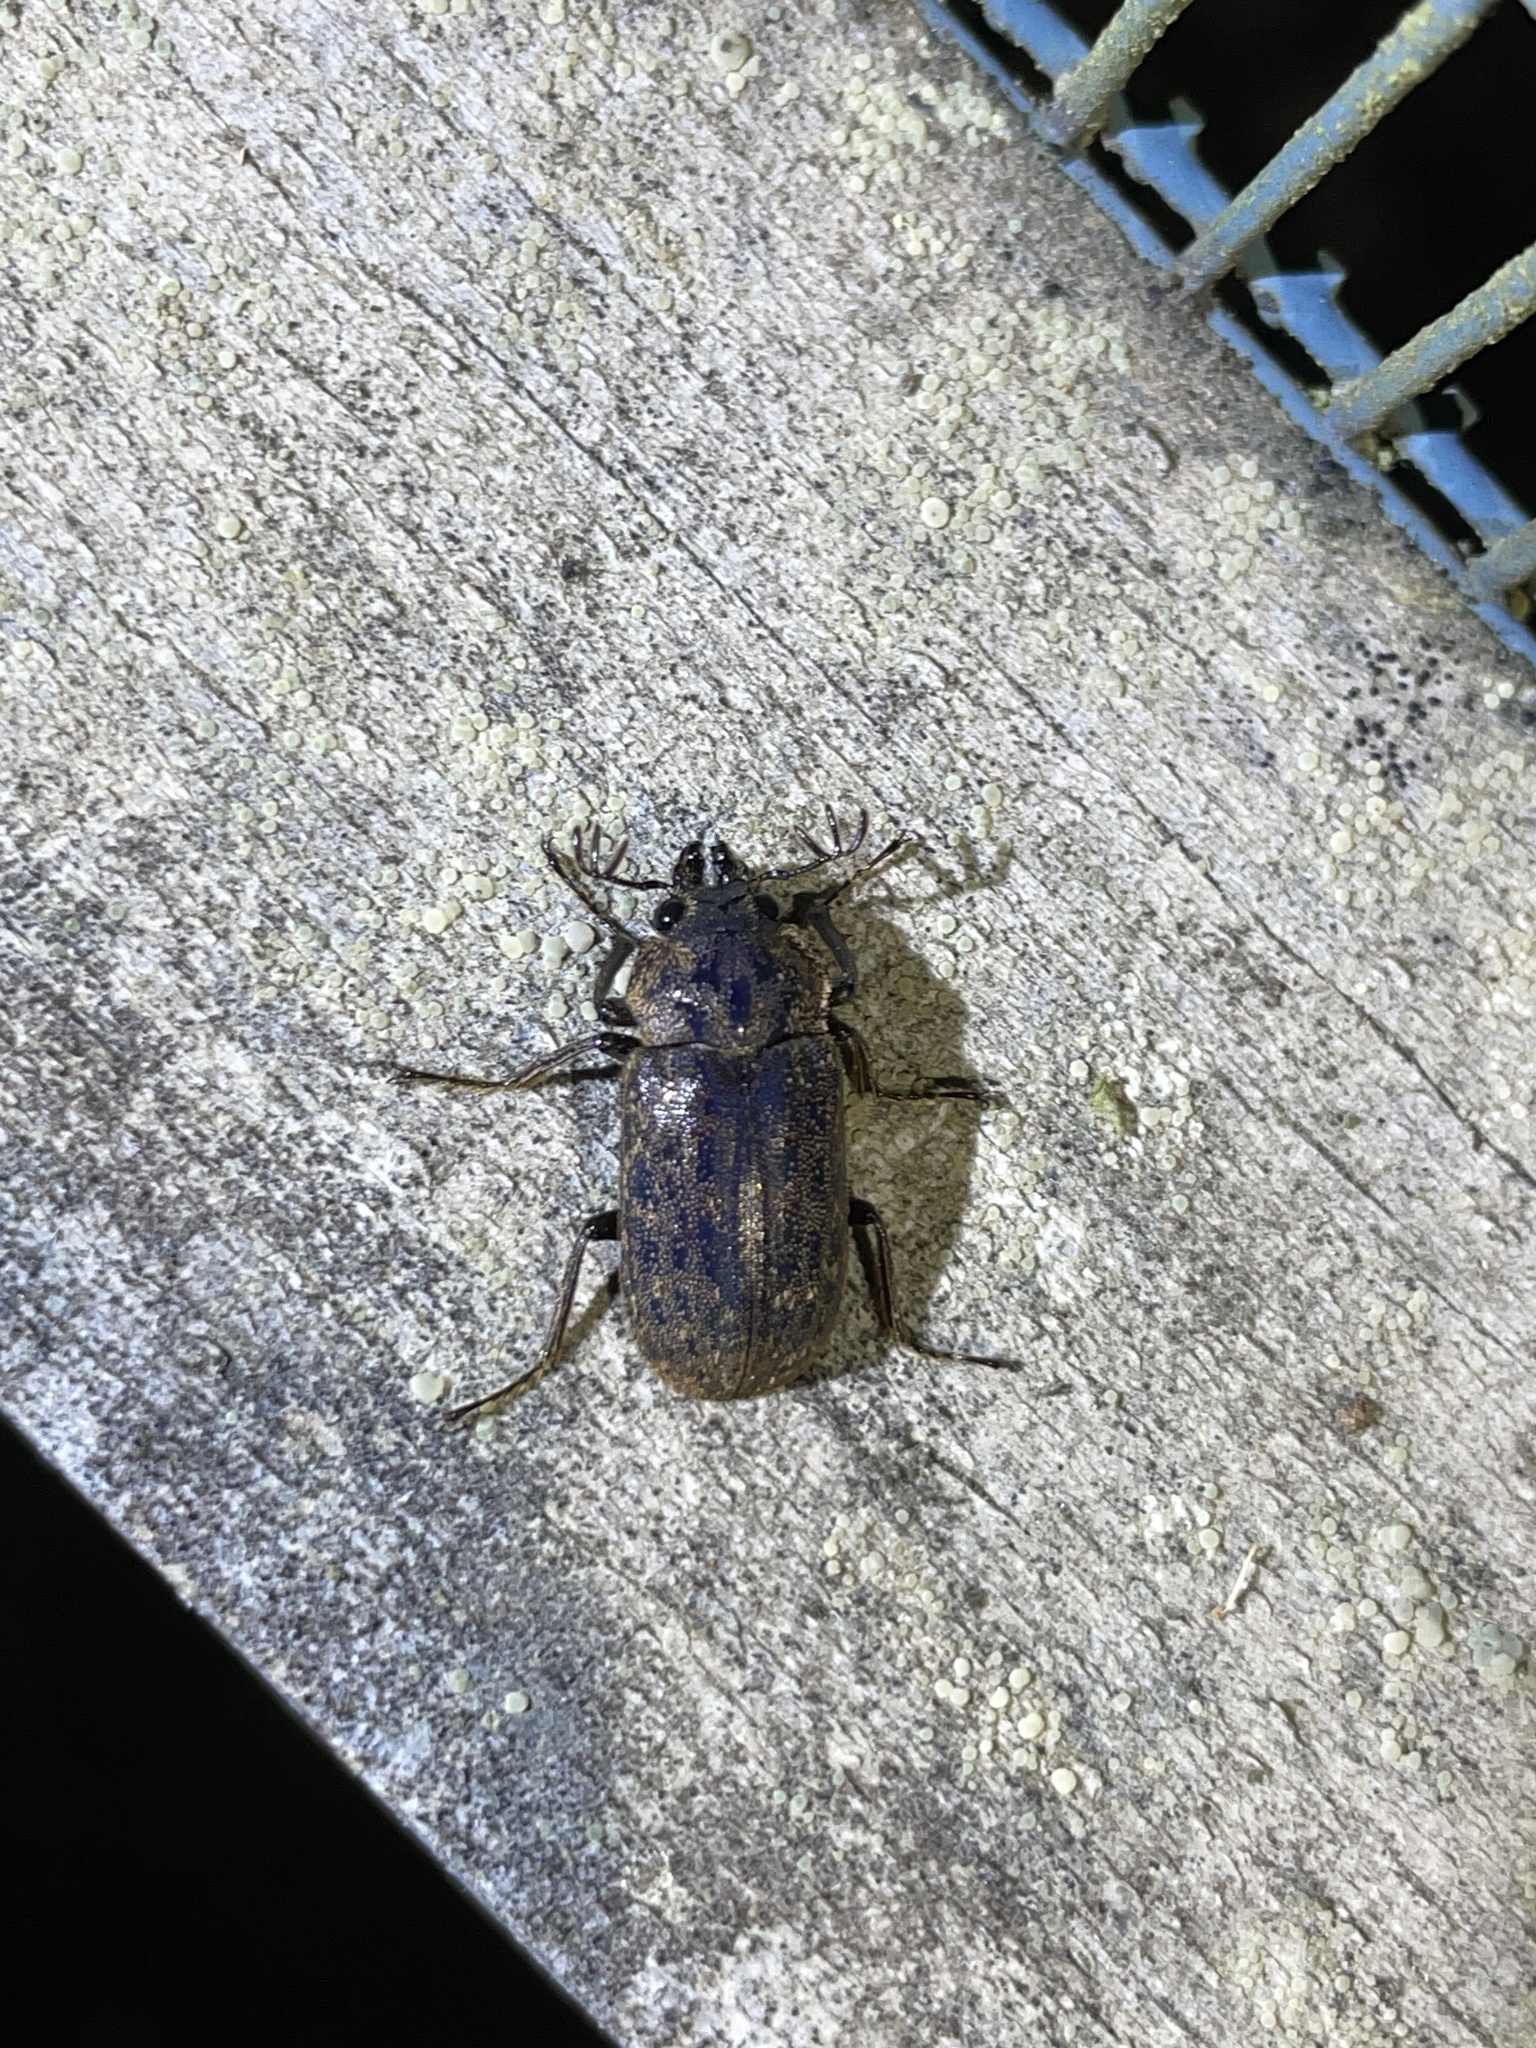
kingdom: Animalia
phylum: Arthropoda
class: Insecta
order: Coleoptera
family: Lucanidae
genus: Mitophyllus
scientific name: Mitophyllus parrianus
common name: Parry's stag beetle
